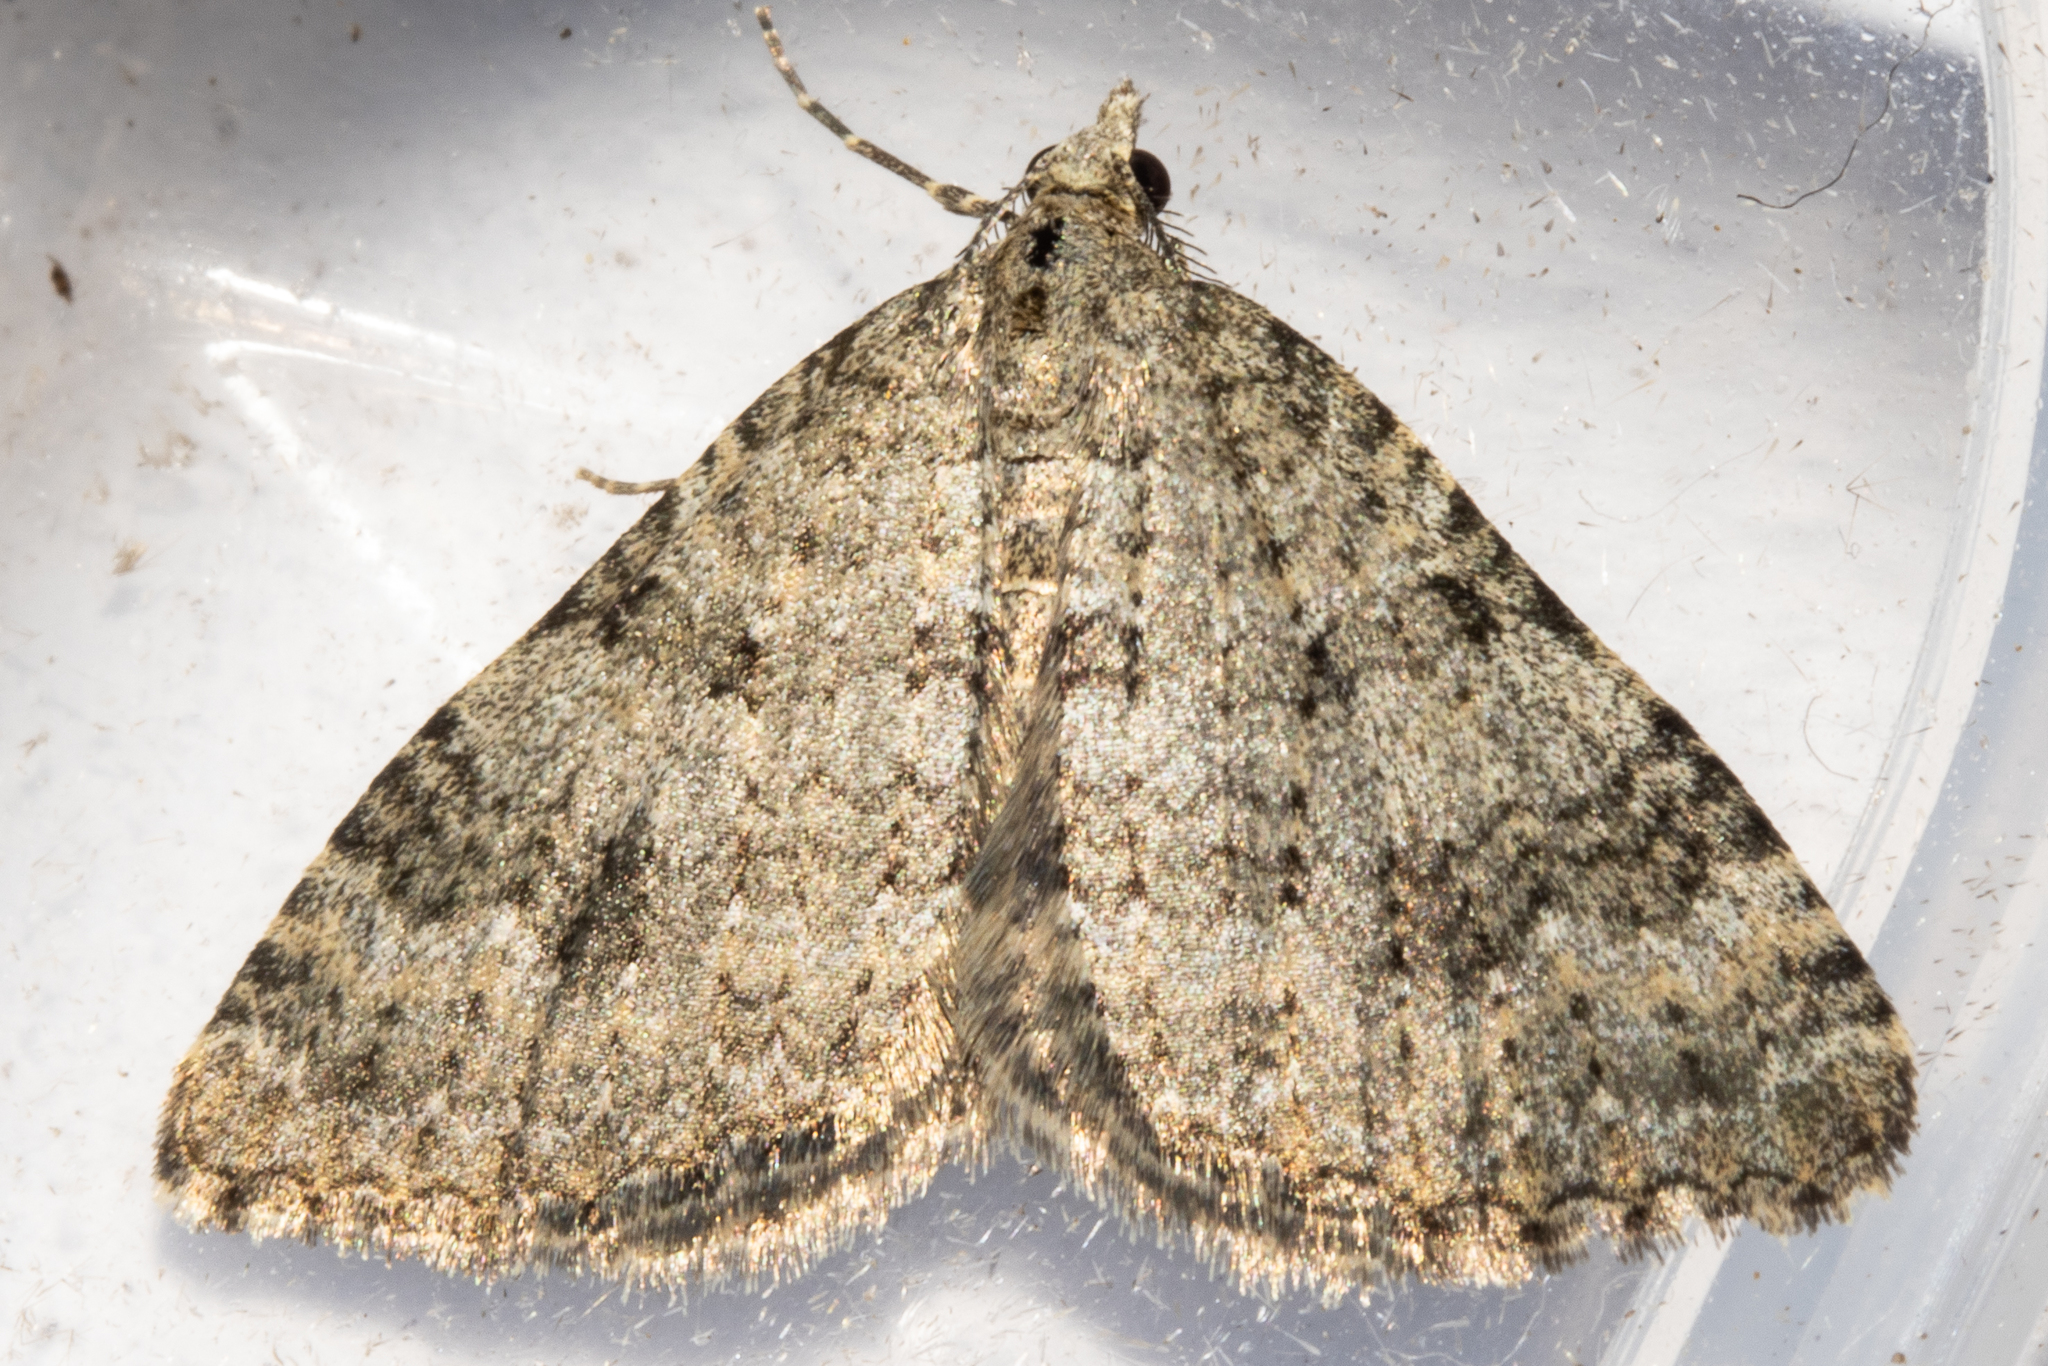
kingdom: Animalia
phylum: Arthropoda
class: Insecta
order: Lepidoptera
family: Geometridae
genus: Helastia
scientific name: Helastia corcularia
